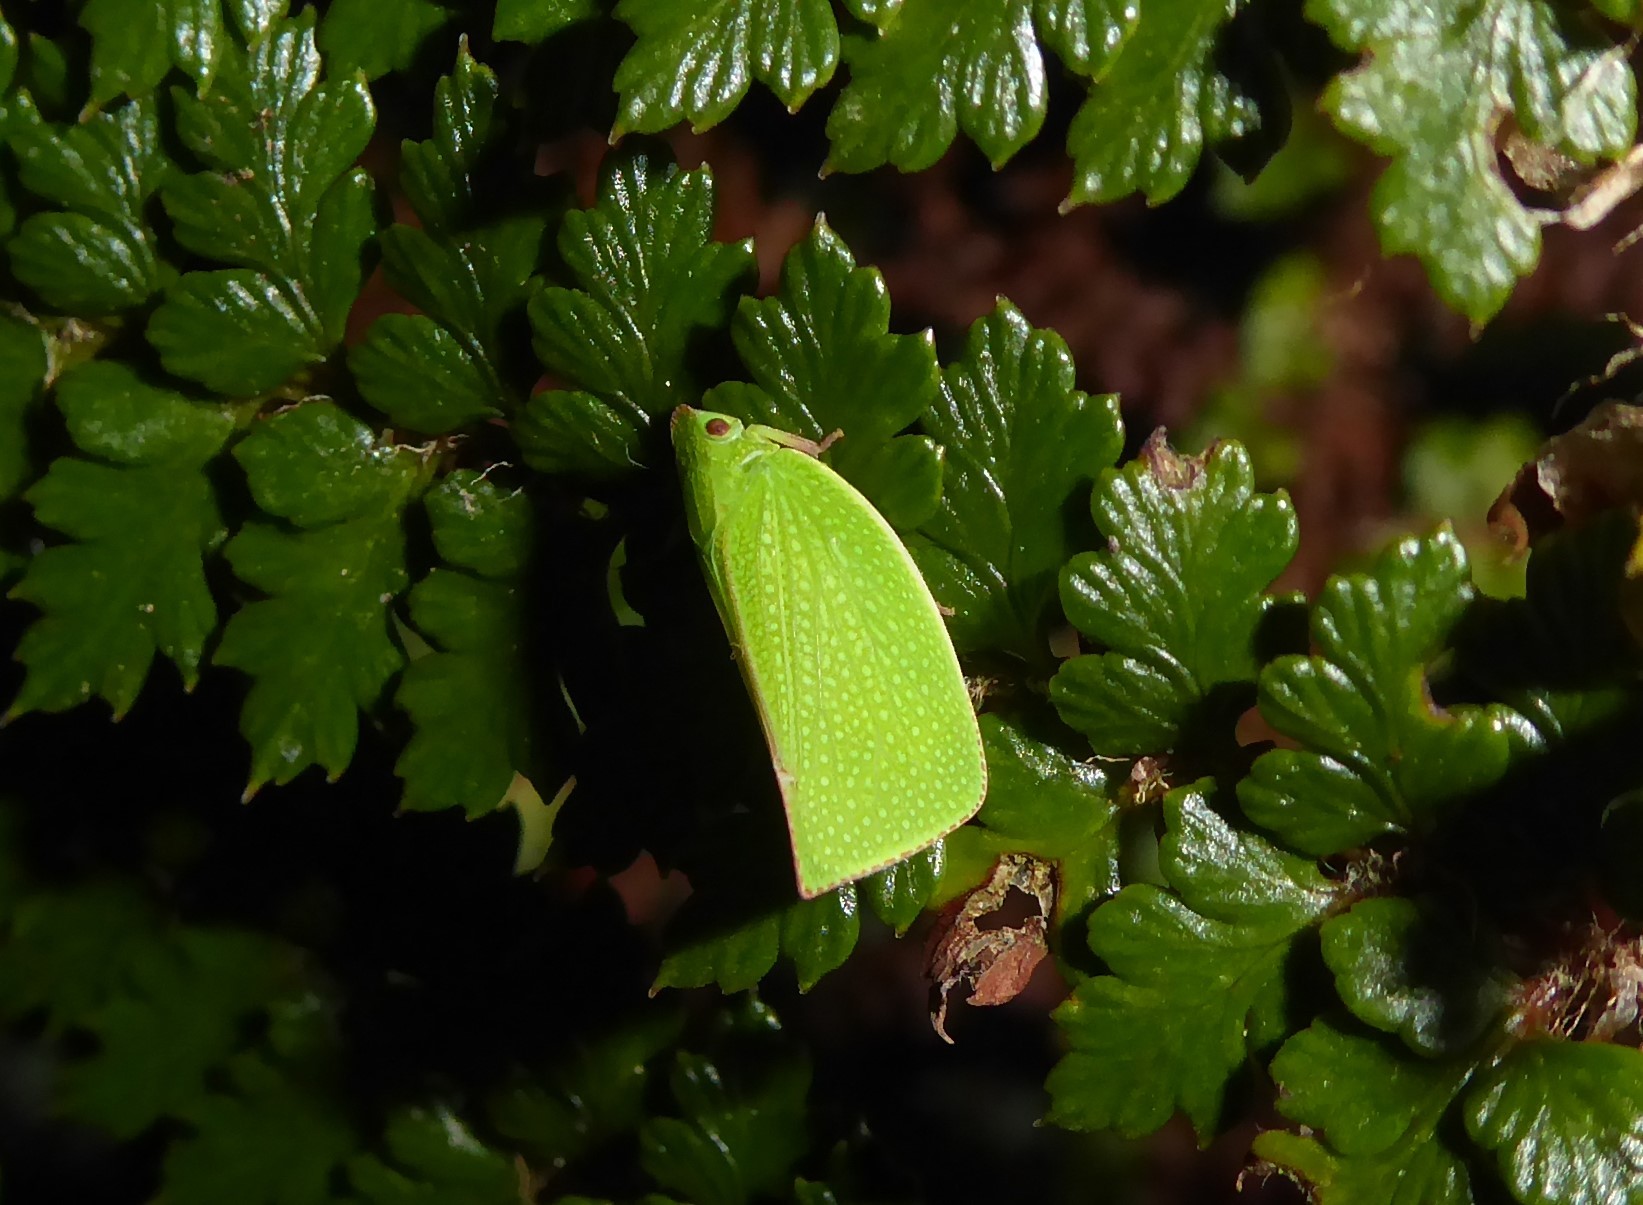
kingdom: Animalia
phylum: Arthropoda
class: Insecta
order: Hemiptera
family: Flatidae
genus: Siphanta
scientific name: Siphanta acuta
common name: Torpedo bug
